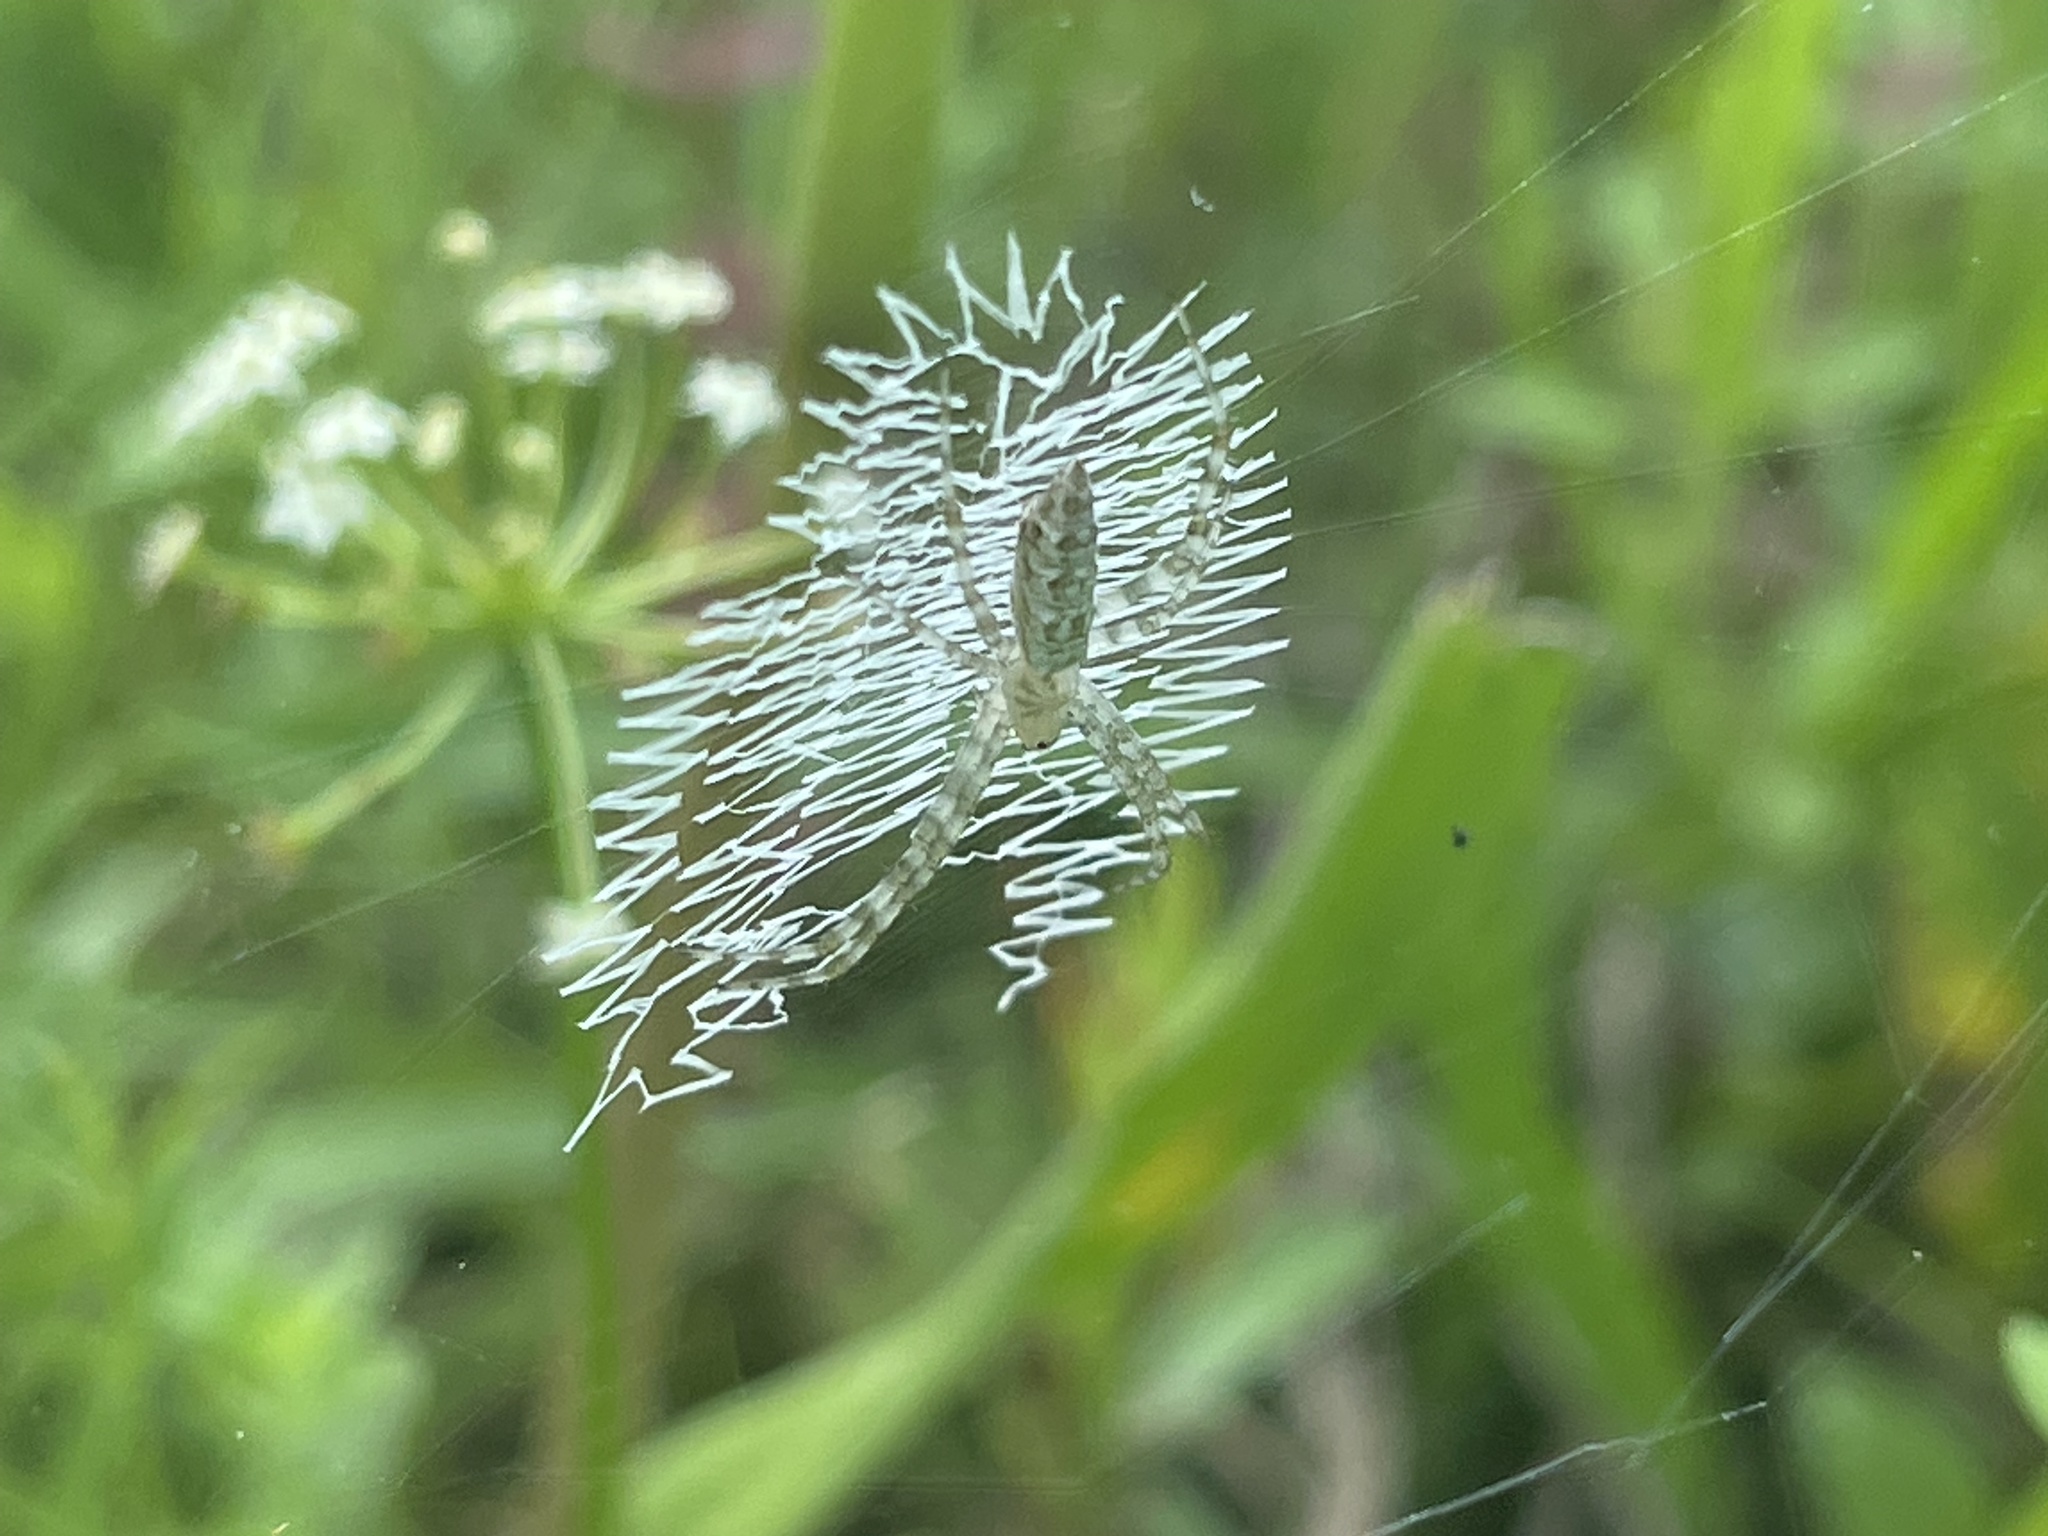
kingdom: Animalia
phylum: Arthropoda
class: Arachnida
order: Araneae
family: Araneidae
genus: Argiope
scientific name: Argiope aurantia
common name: Orb weavers
